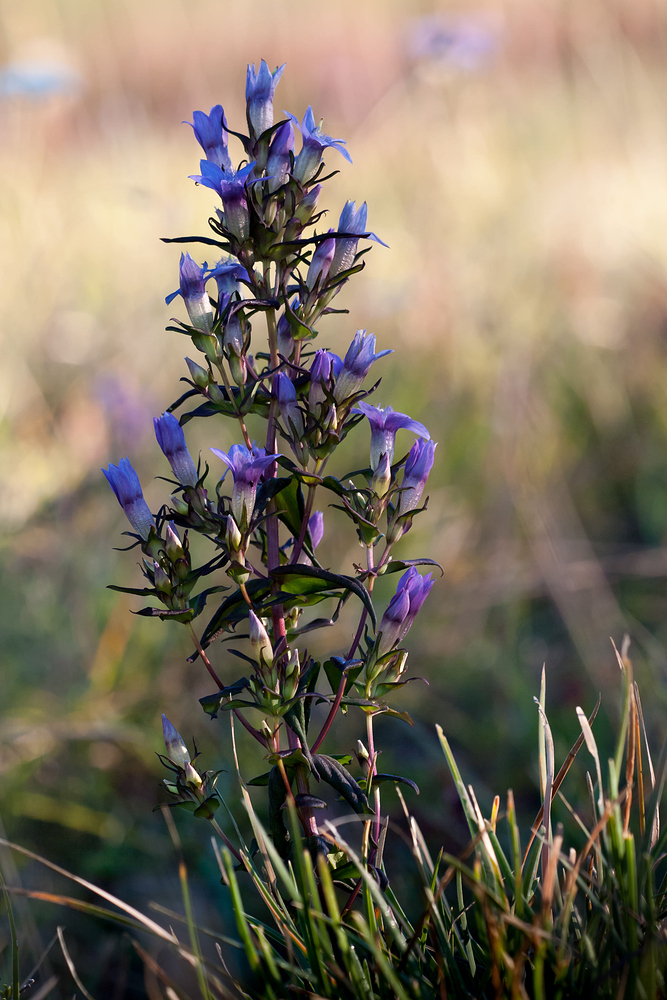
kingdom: Plantae
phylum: Tracheophyta
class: Magnoliopsida
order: Gentianales
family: Gentianaceae
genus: Gentianella
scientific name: Gentianella germanica
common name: Chiltern-gentian
